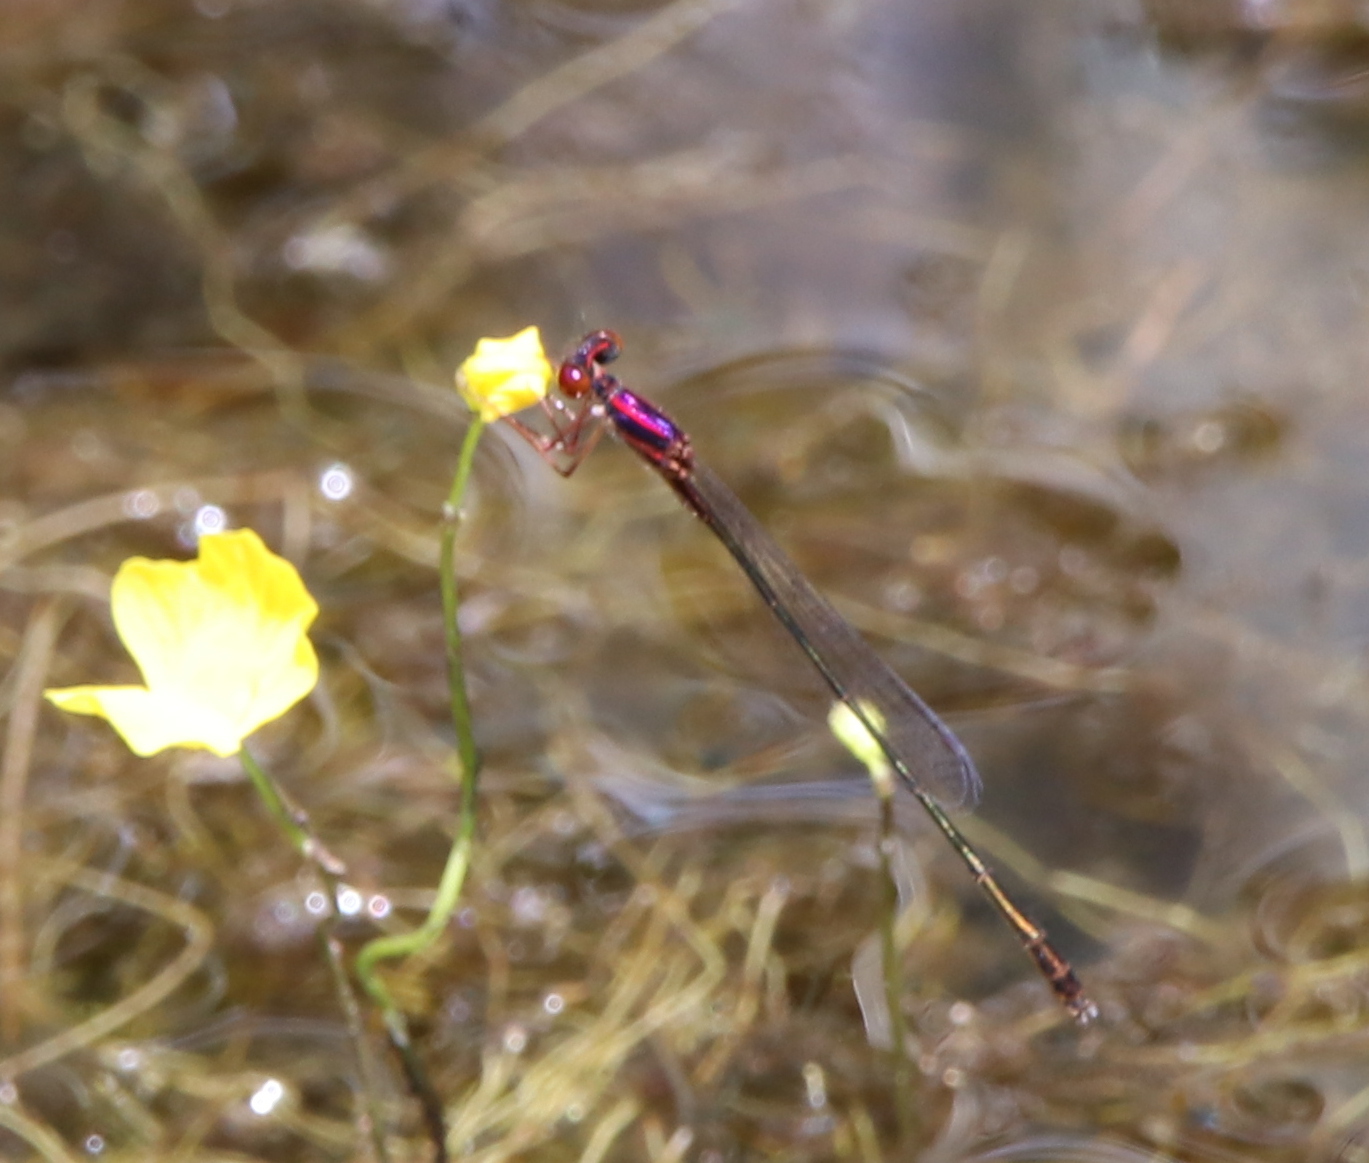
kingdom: Animalia
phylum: Arthropoda
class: Insecta
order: Odonata
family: Coenagrionidae
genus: Enallagma
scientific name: Enallagma dubium
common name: Burgundy bluet
